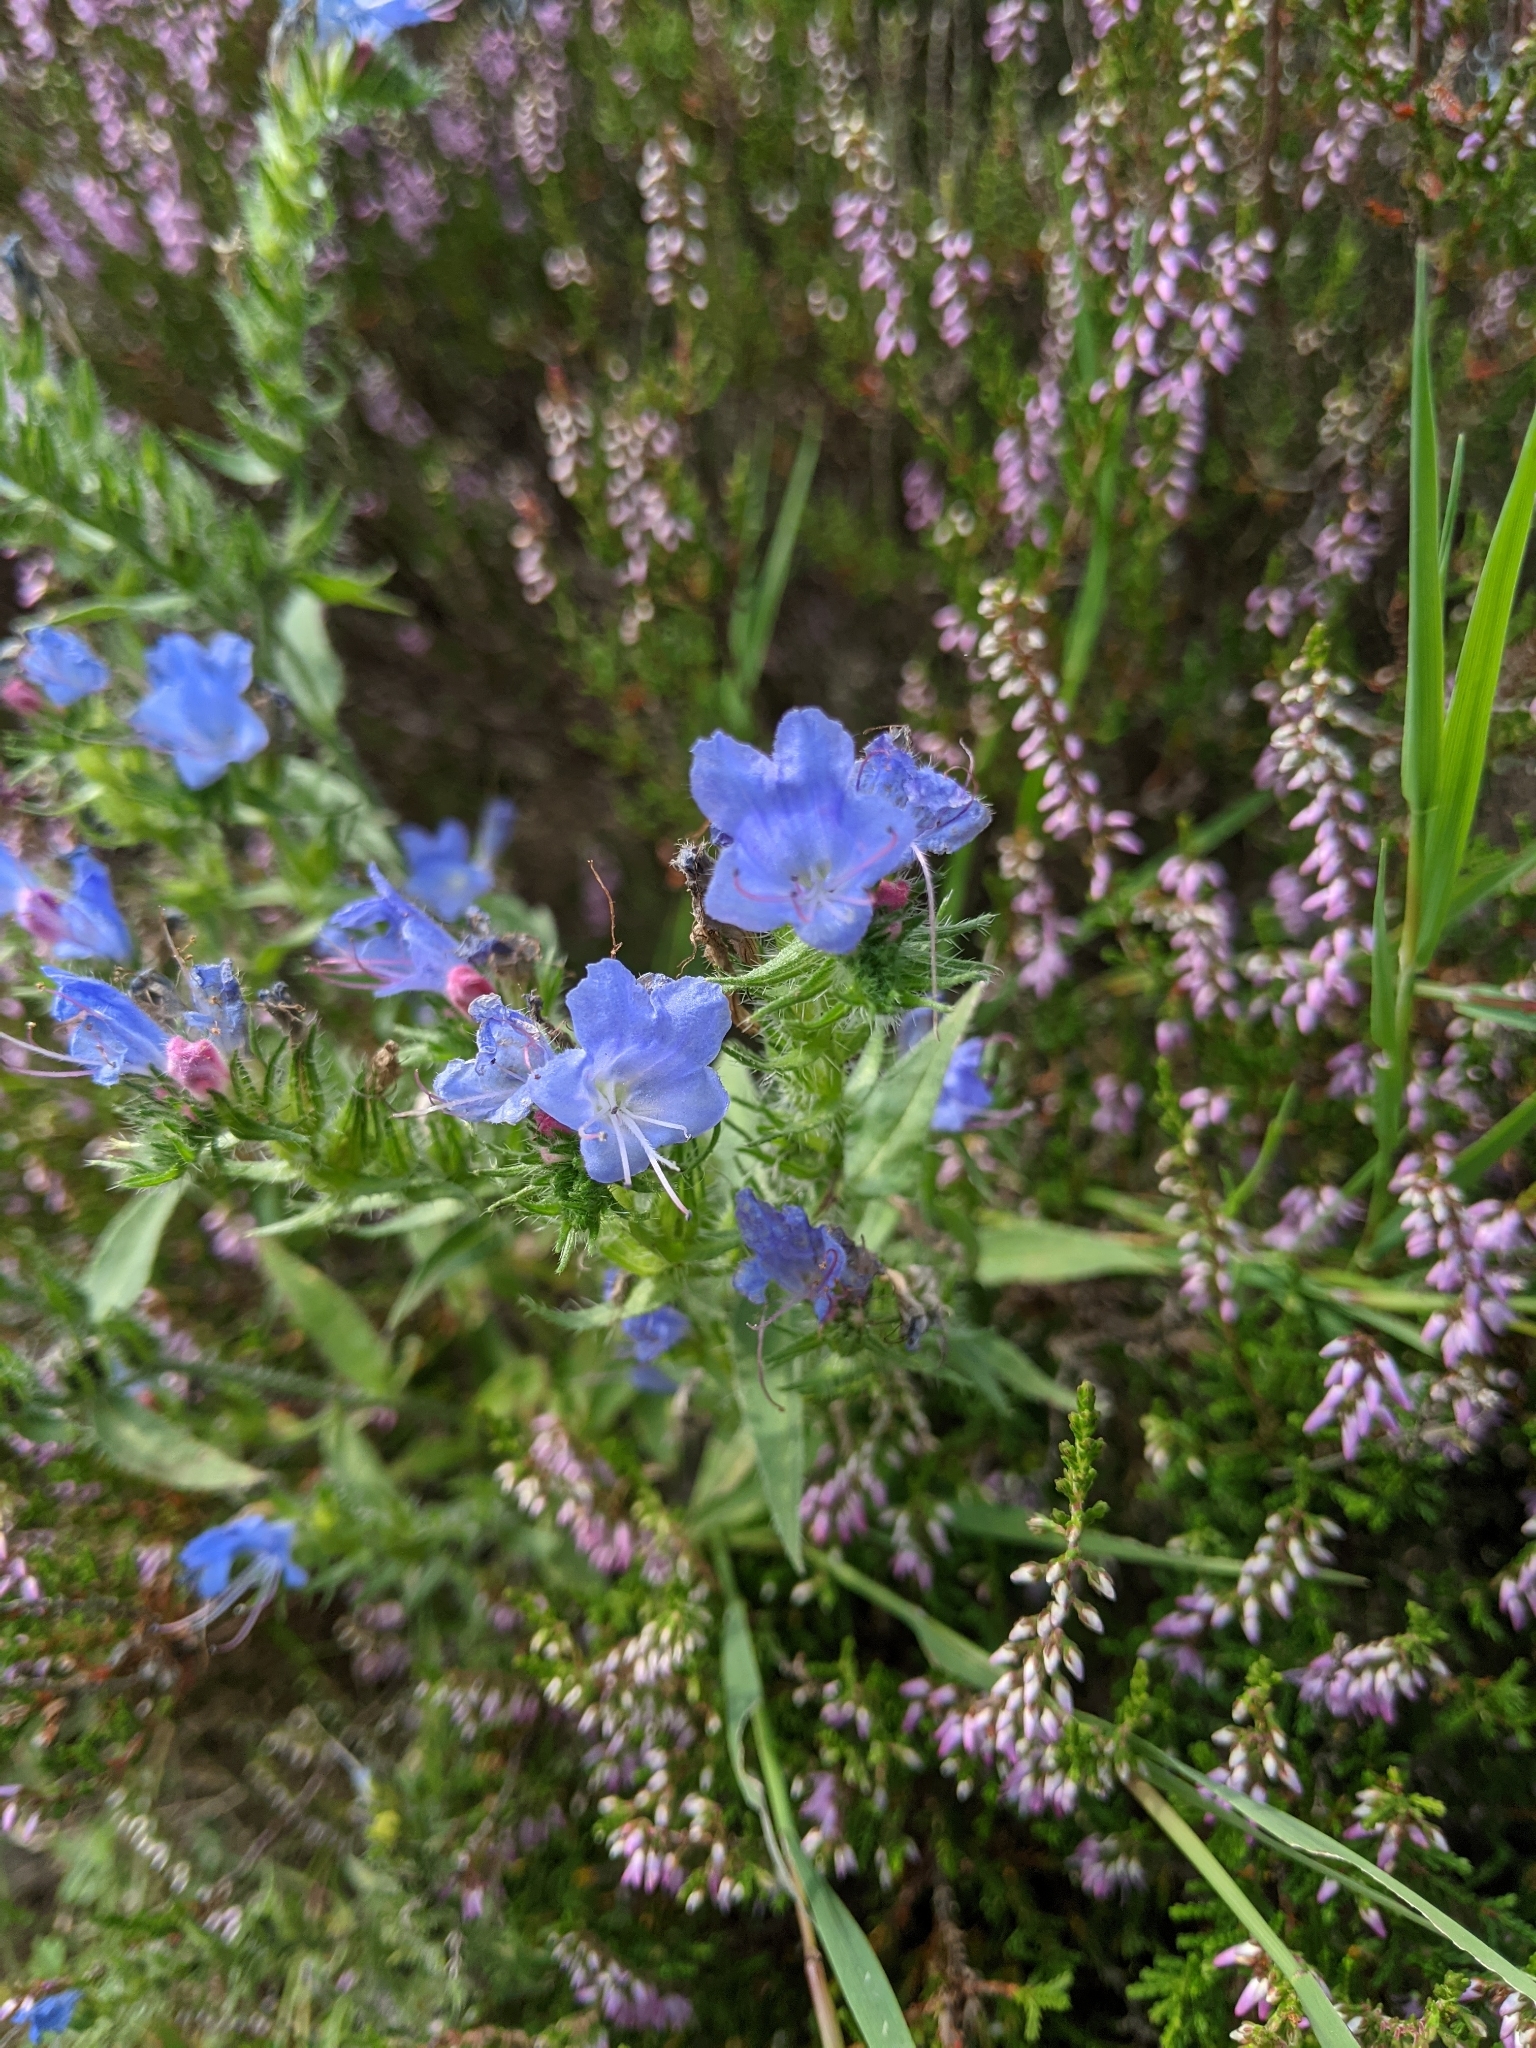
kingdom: Plantae
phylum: Tracheophyta
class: Magnoliopsida
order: Boraginales
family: Boraginaceae
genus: Echium
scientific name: Echium vulgare
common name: Common viper's bugloss
